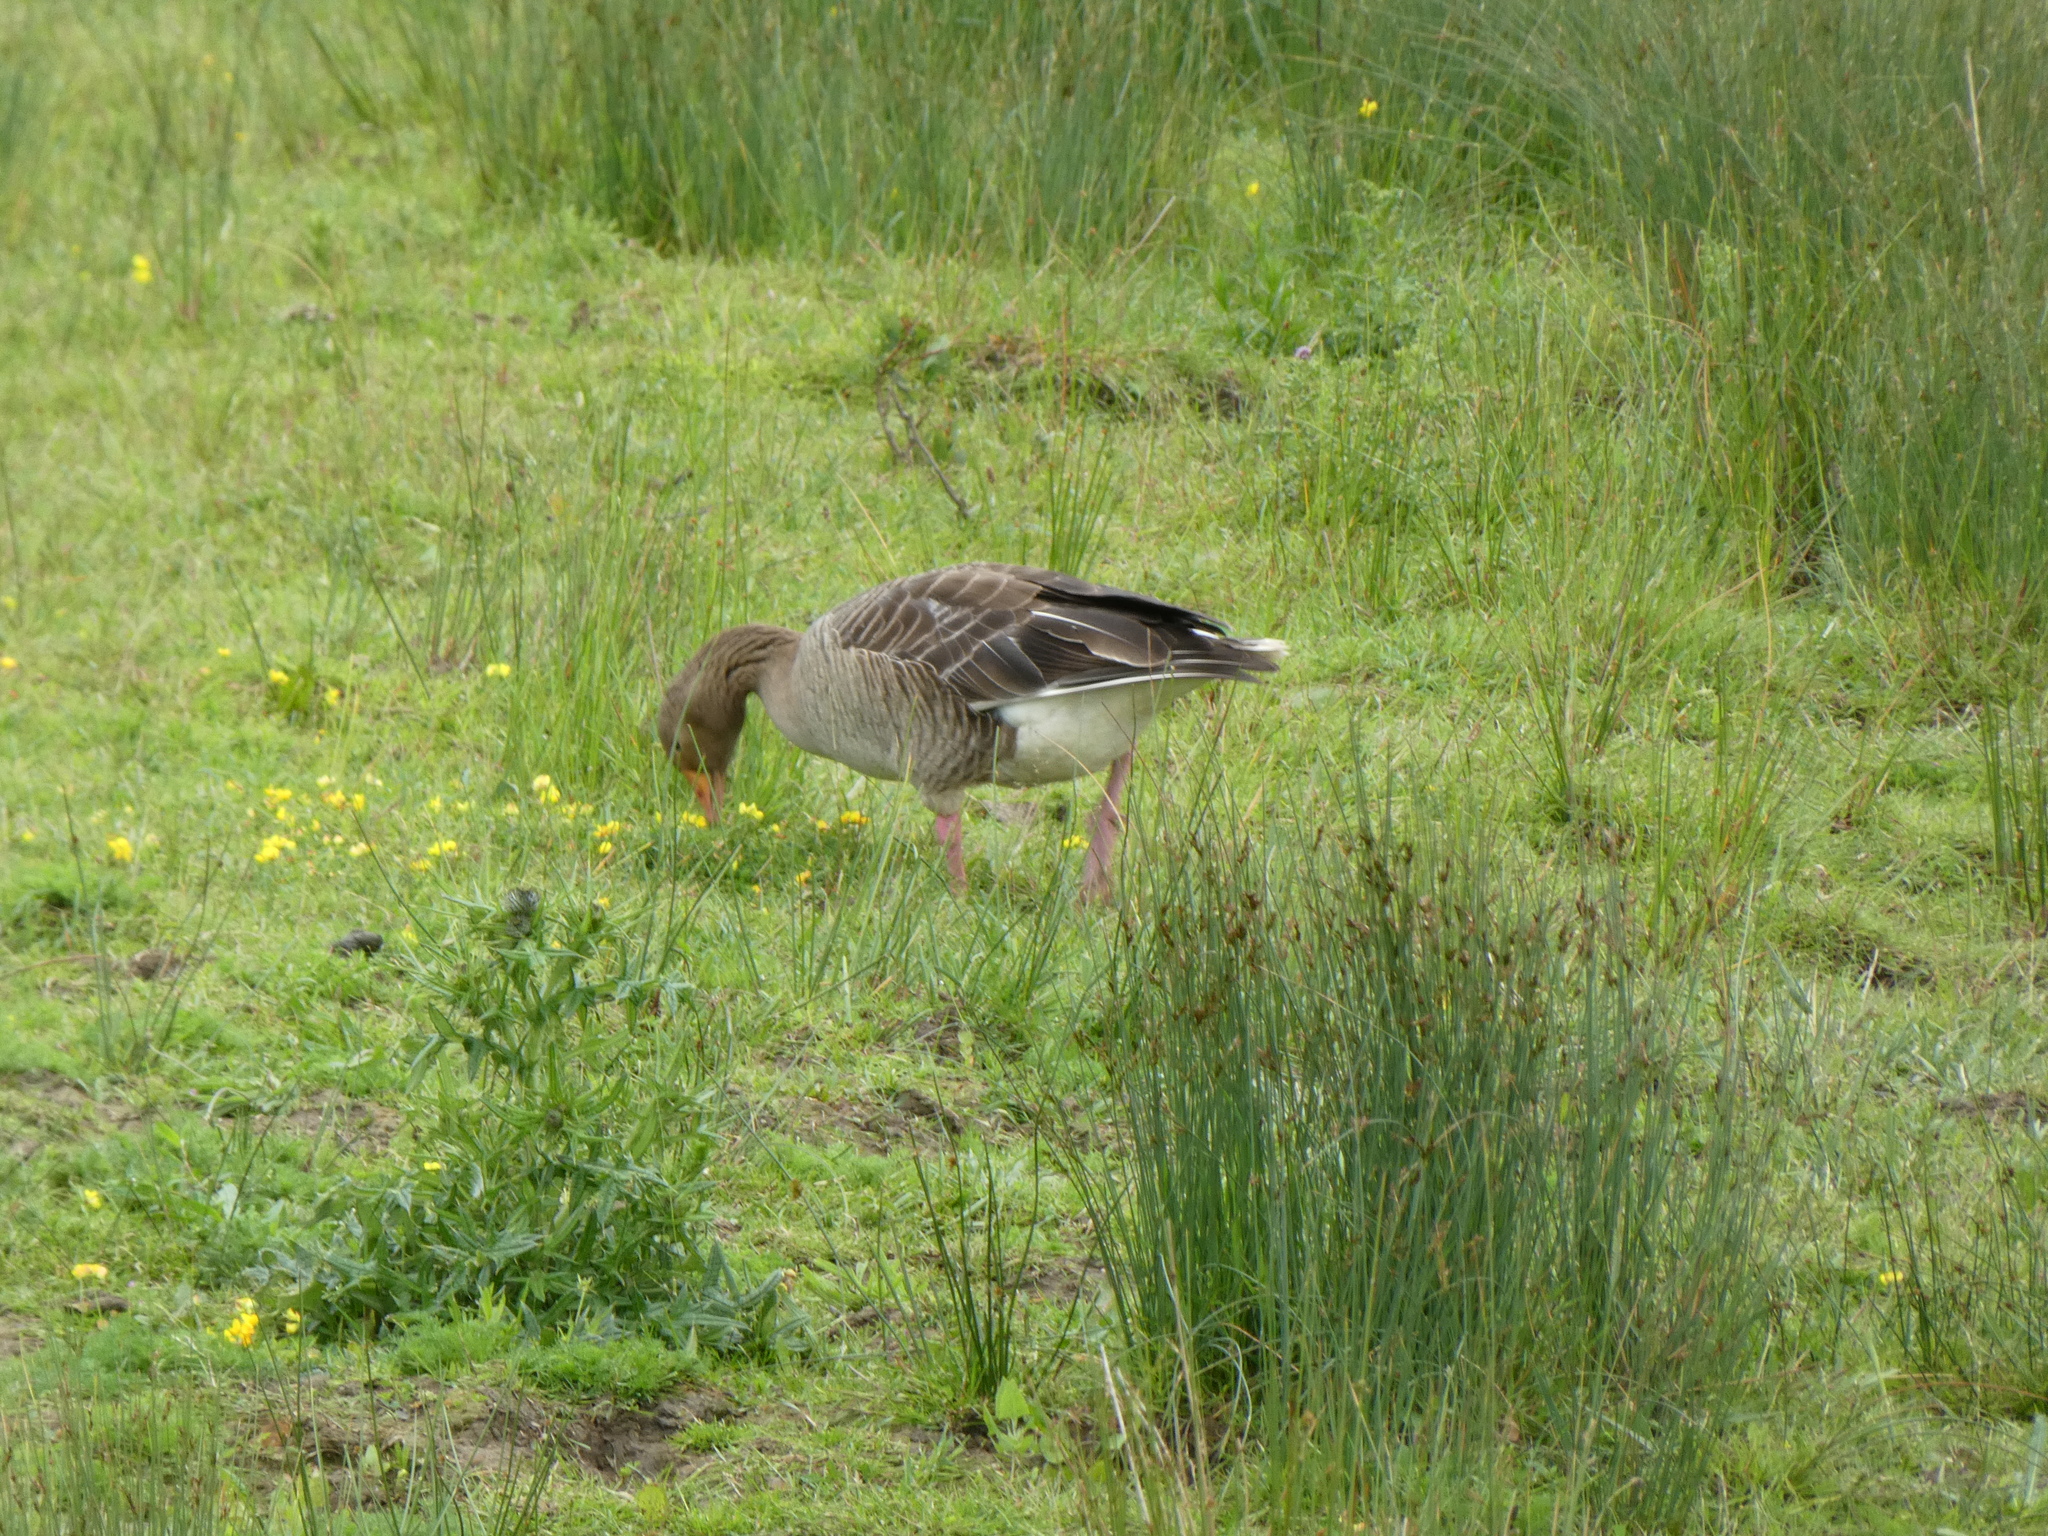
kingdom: Animalia
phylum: Chordata
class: Aves
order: Anseriformes
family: Anatidae
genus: Anser
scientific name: Anser anser
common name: Greylag goose
